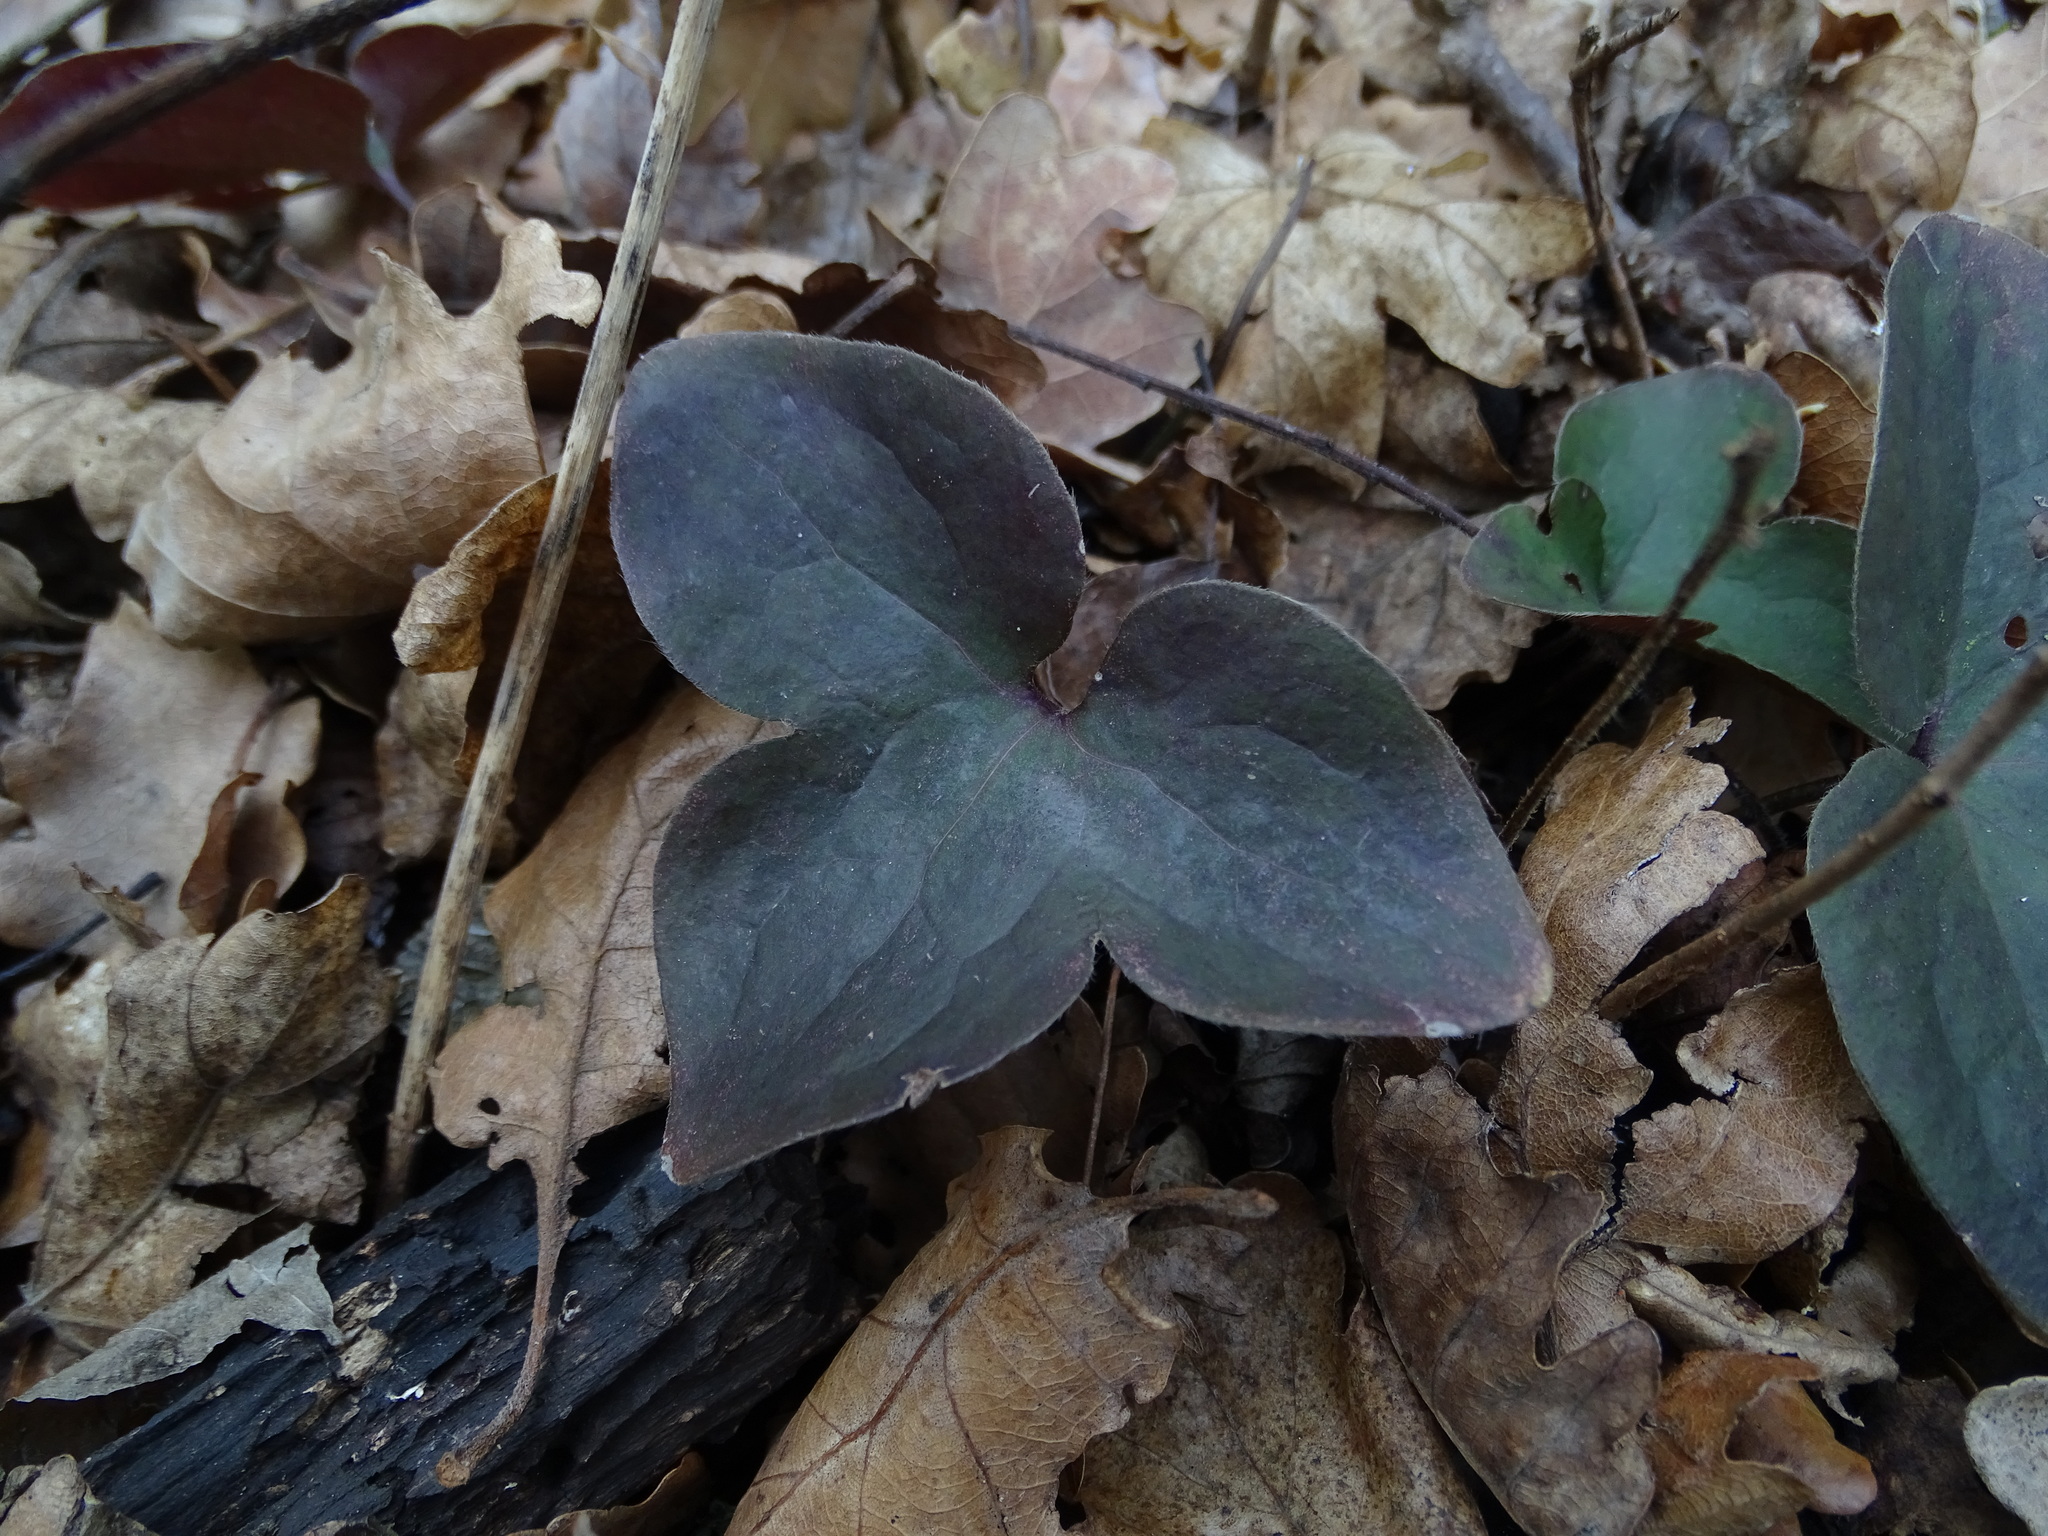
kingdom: Plantae
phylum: Tracheophyta
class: Magnoliopsida
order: Ranunculales
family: Ranunculaceae
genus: Hepatica
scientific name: Hepatica nobilis
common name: Liverleaf
